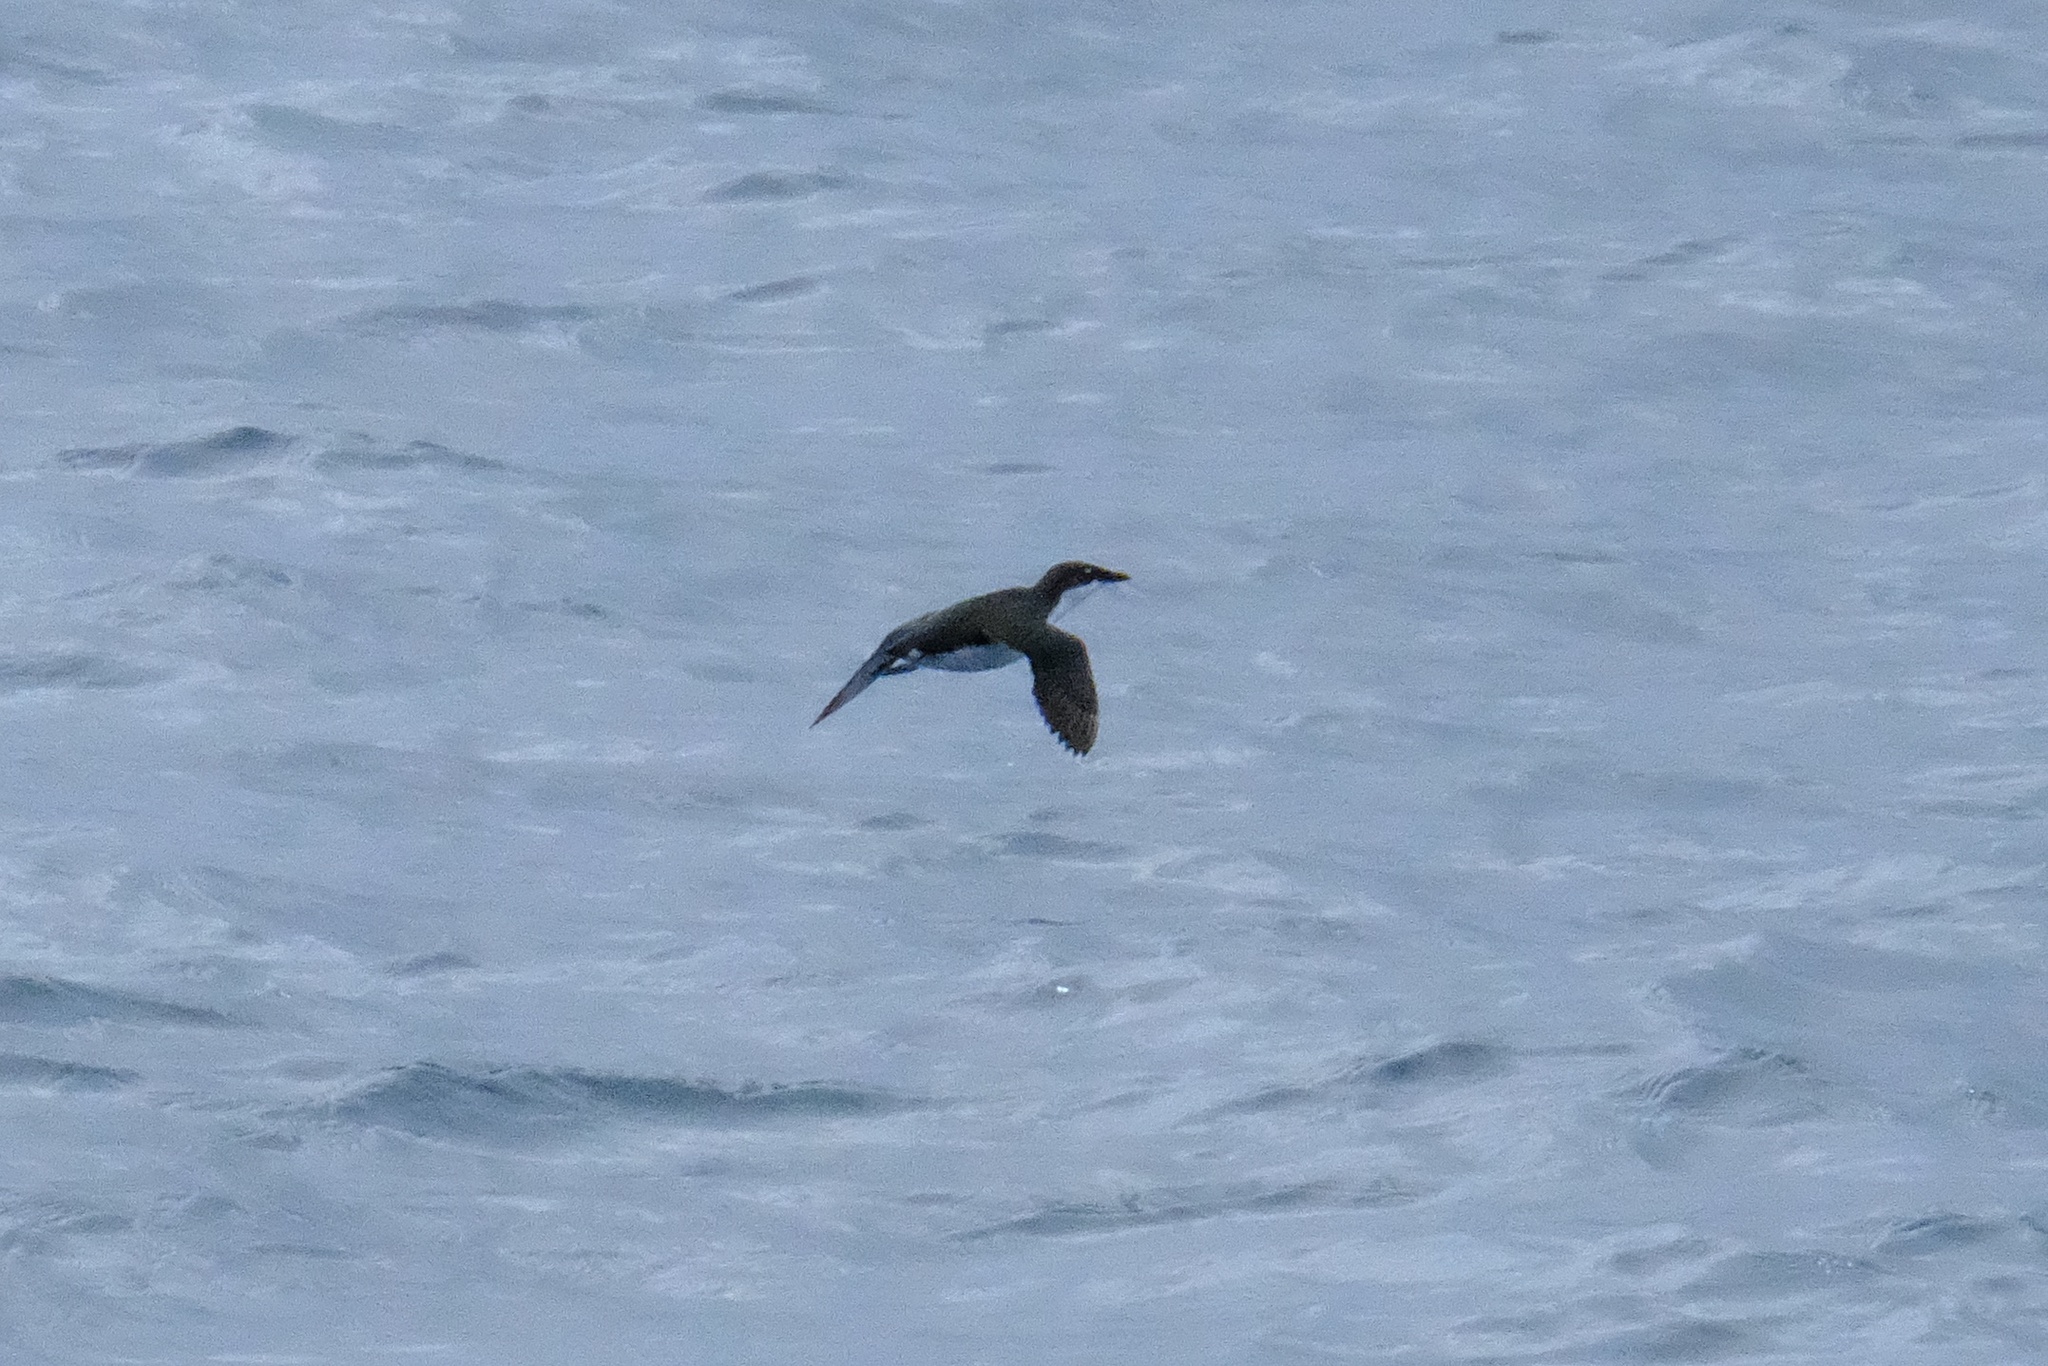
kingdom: Animalia
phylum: Chordata
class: Aves
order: Charadriiformes
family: Alcidae
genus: Synthliboramphus
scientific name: Synthliboramphus scrippsi
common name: Scripps's murrelet
